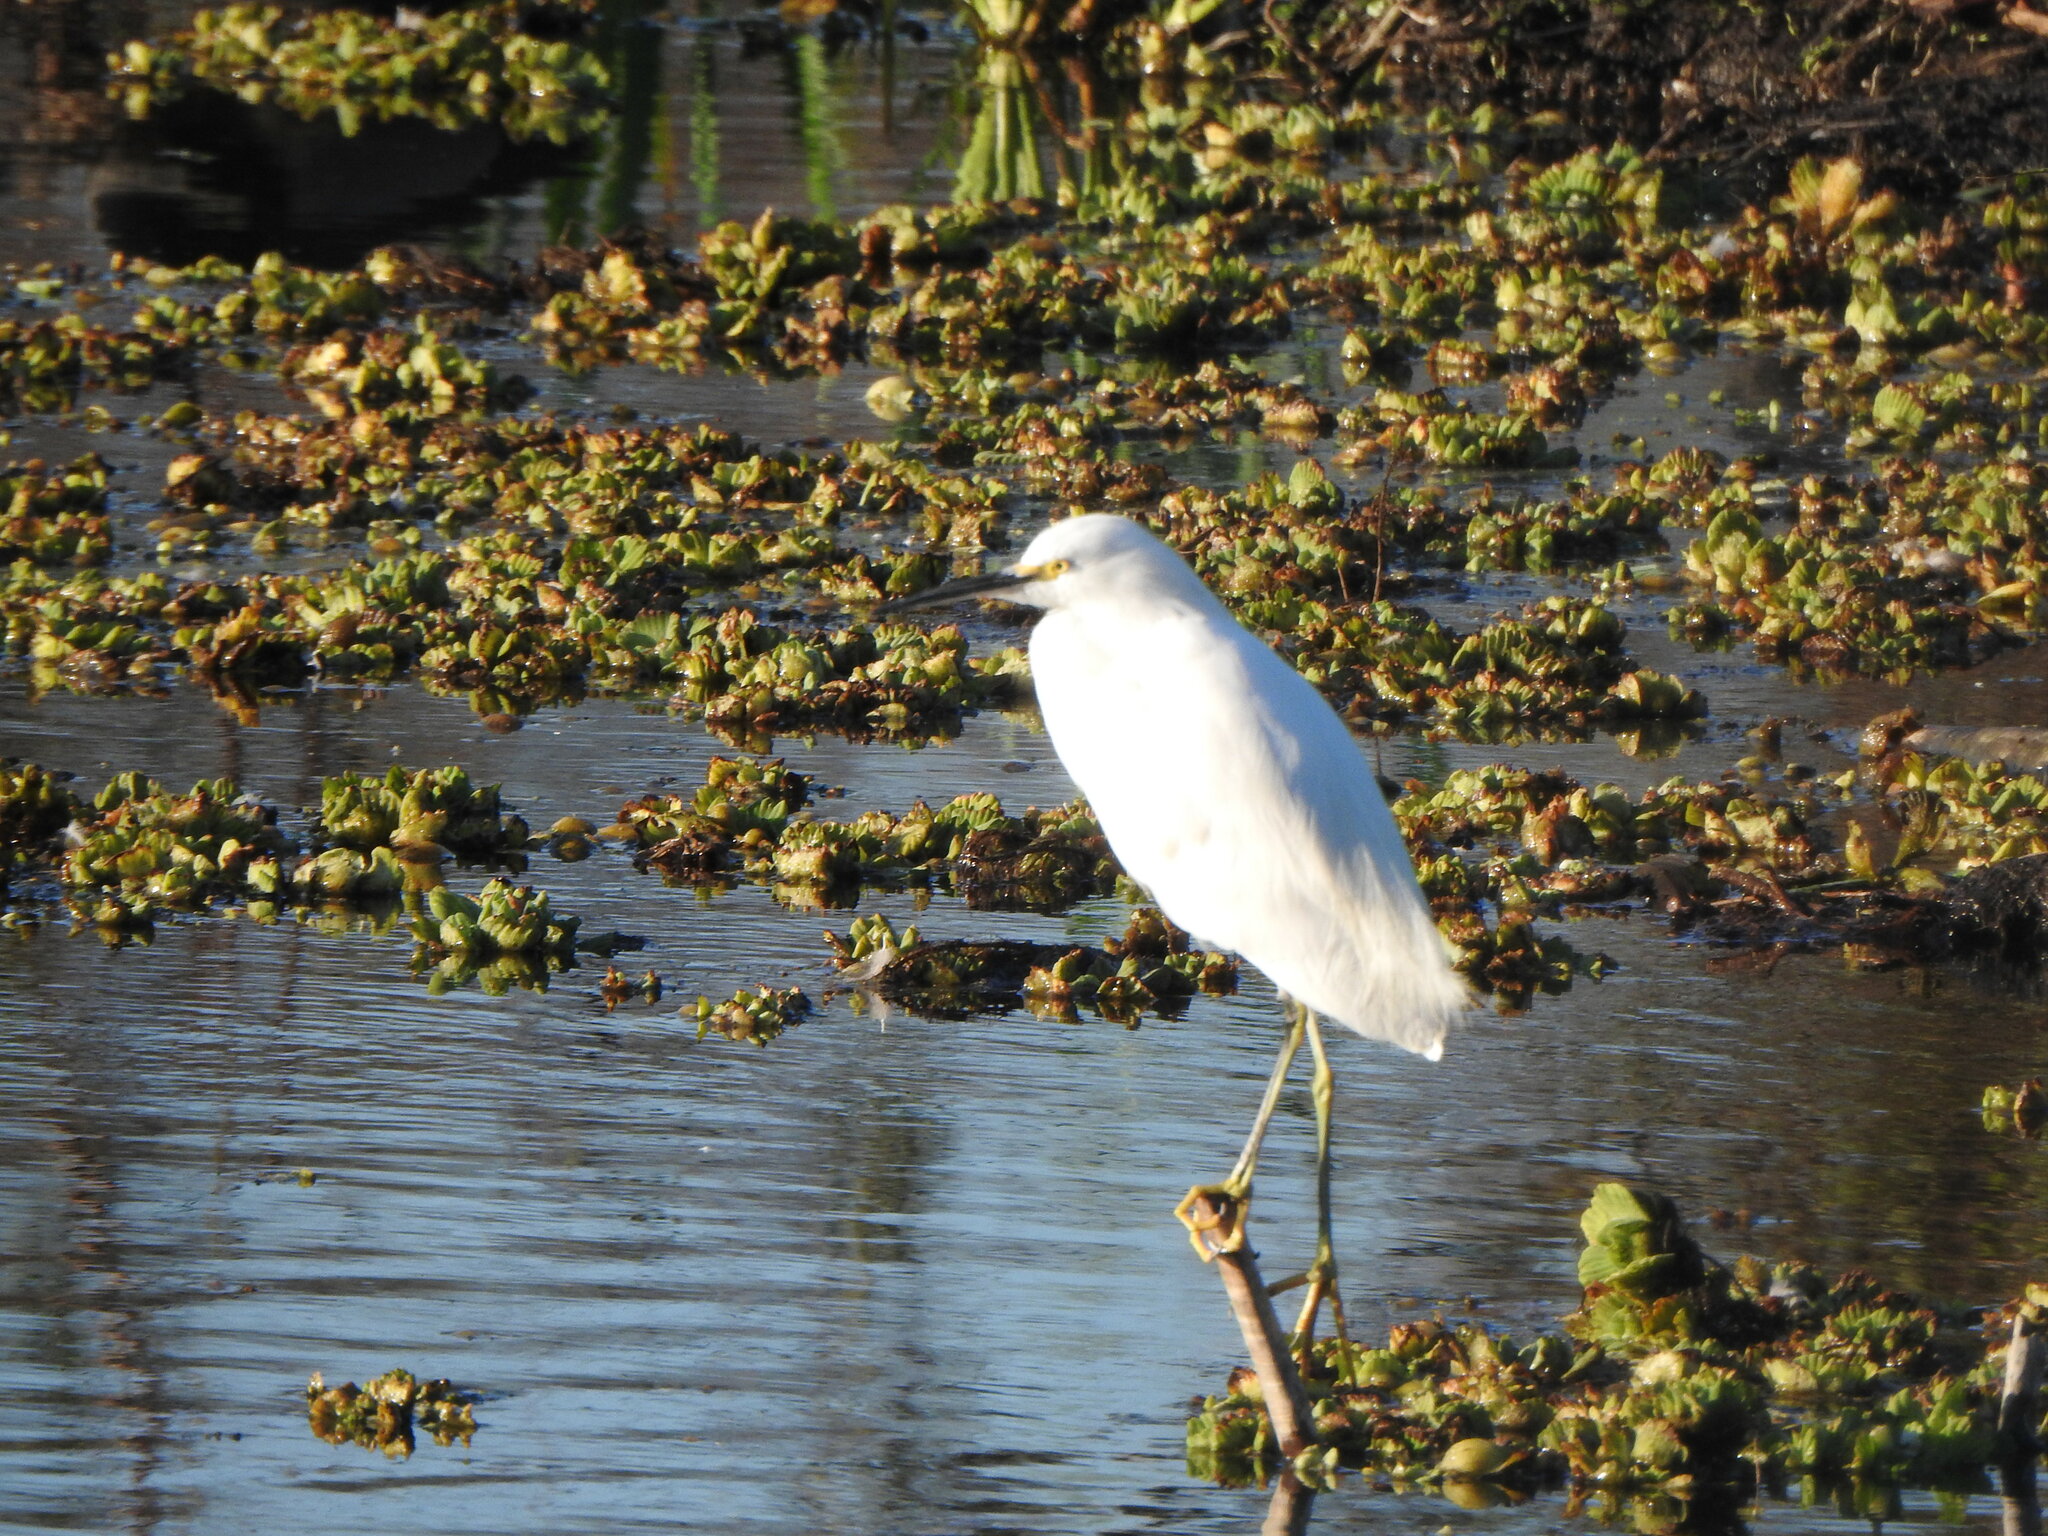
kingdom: Animalia
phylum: Chordata
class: Aves
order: Pelecaniformes
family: Ardeidae
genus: Egretta
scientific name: Egretta thula
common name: Snowy egret
